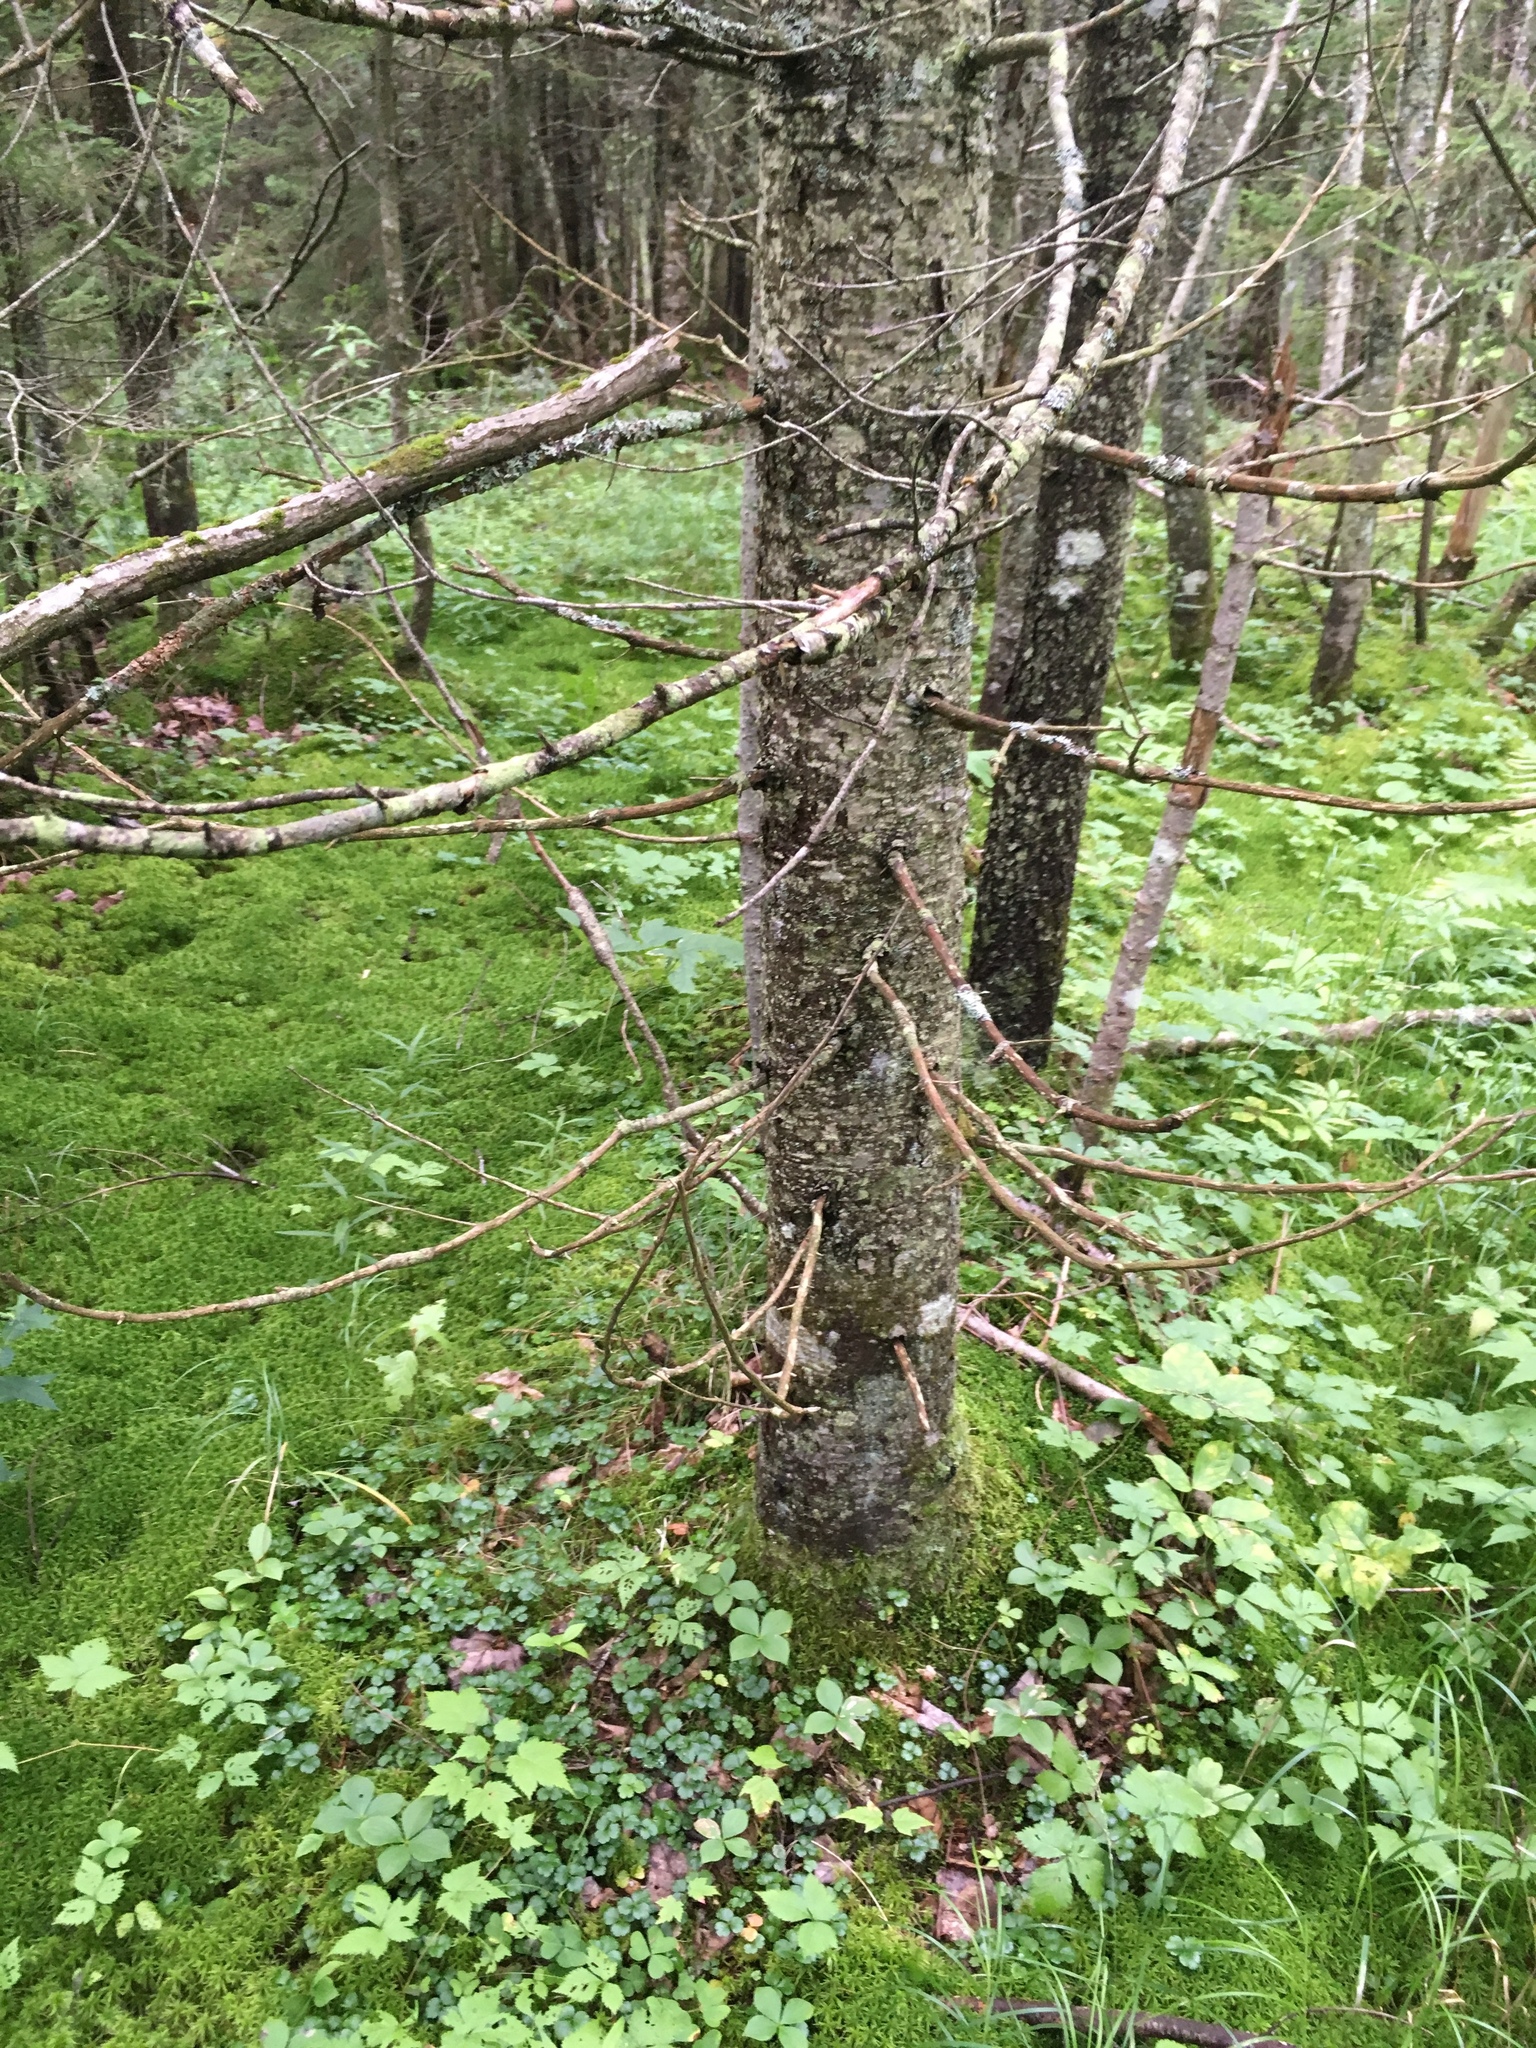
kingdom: Plantae
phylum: Tracheophyta
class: Pinopsida
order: Pinales
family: Pinaceae
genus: Abies
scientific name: Abies balsamea
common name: Balsam fir
